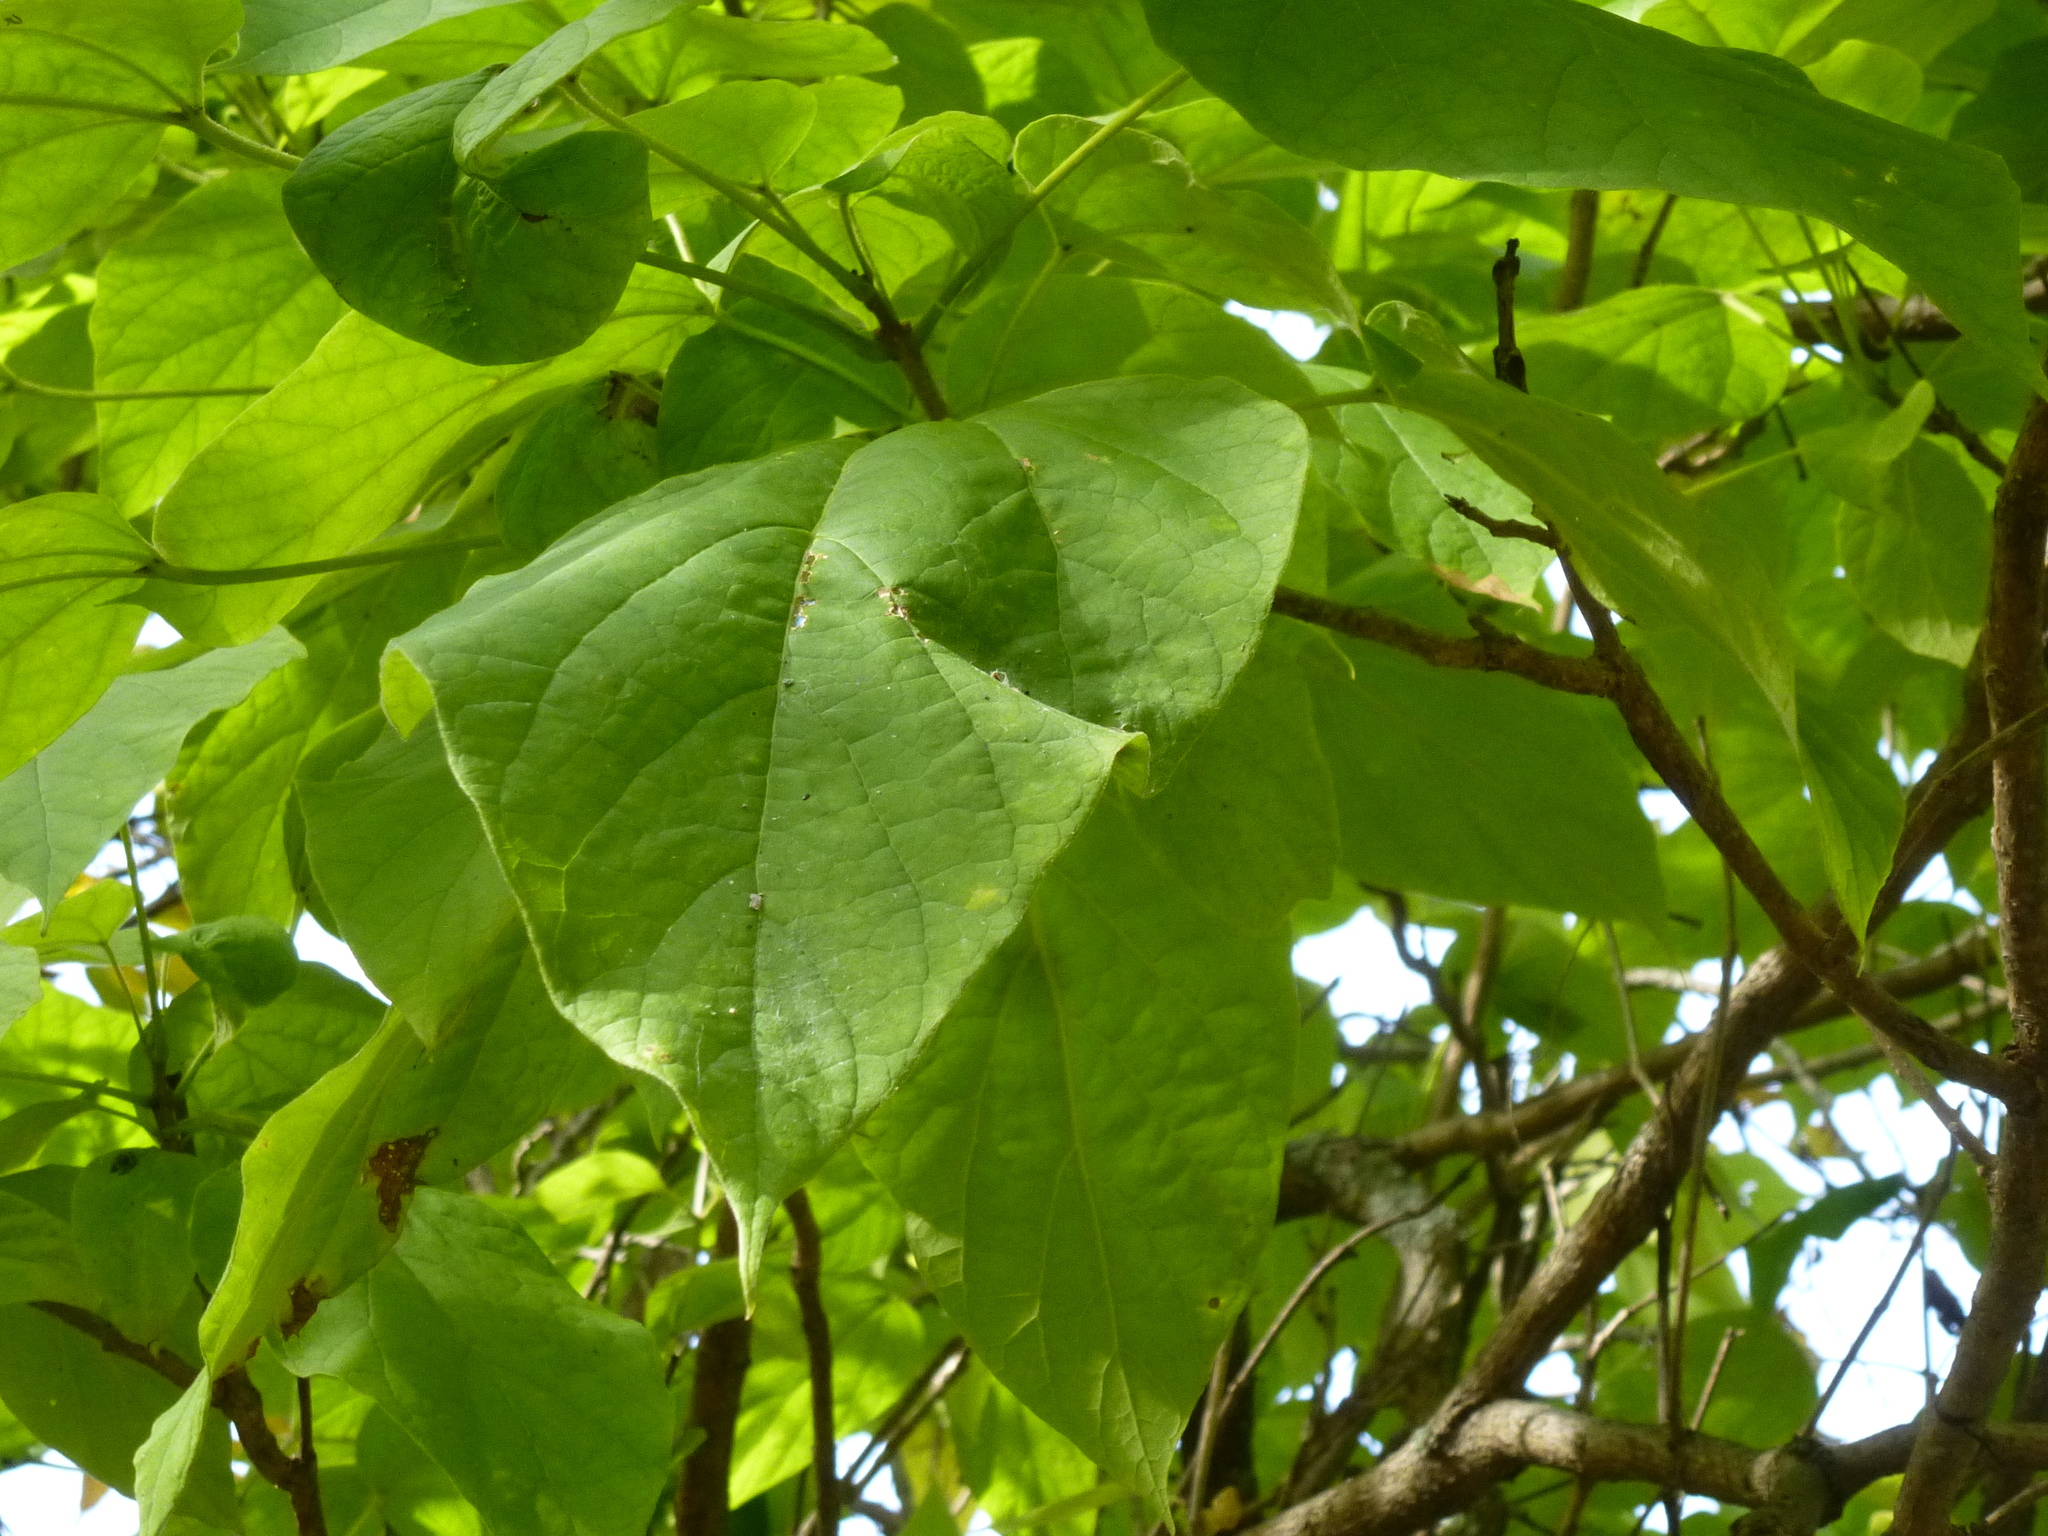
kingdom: Plantae
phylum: Tracheophyta
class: Magnoliopsida
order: Lamiales
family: Bignoniaceae
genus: Catalpa
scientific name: Catalpa speciosa
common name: Northern catalpa
